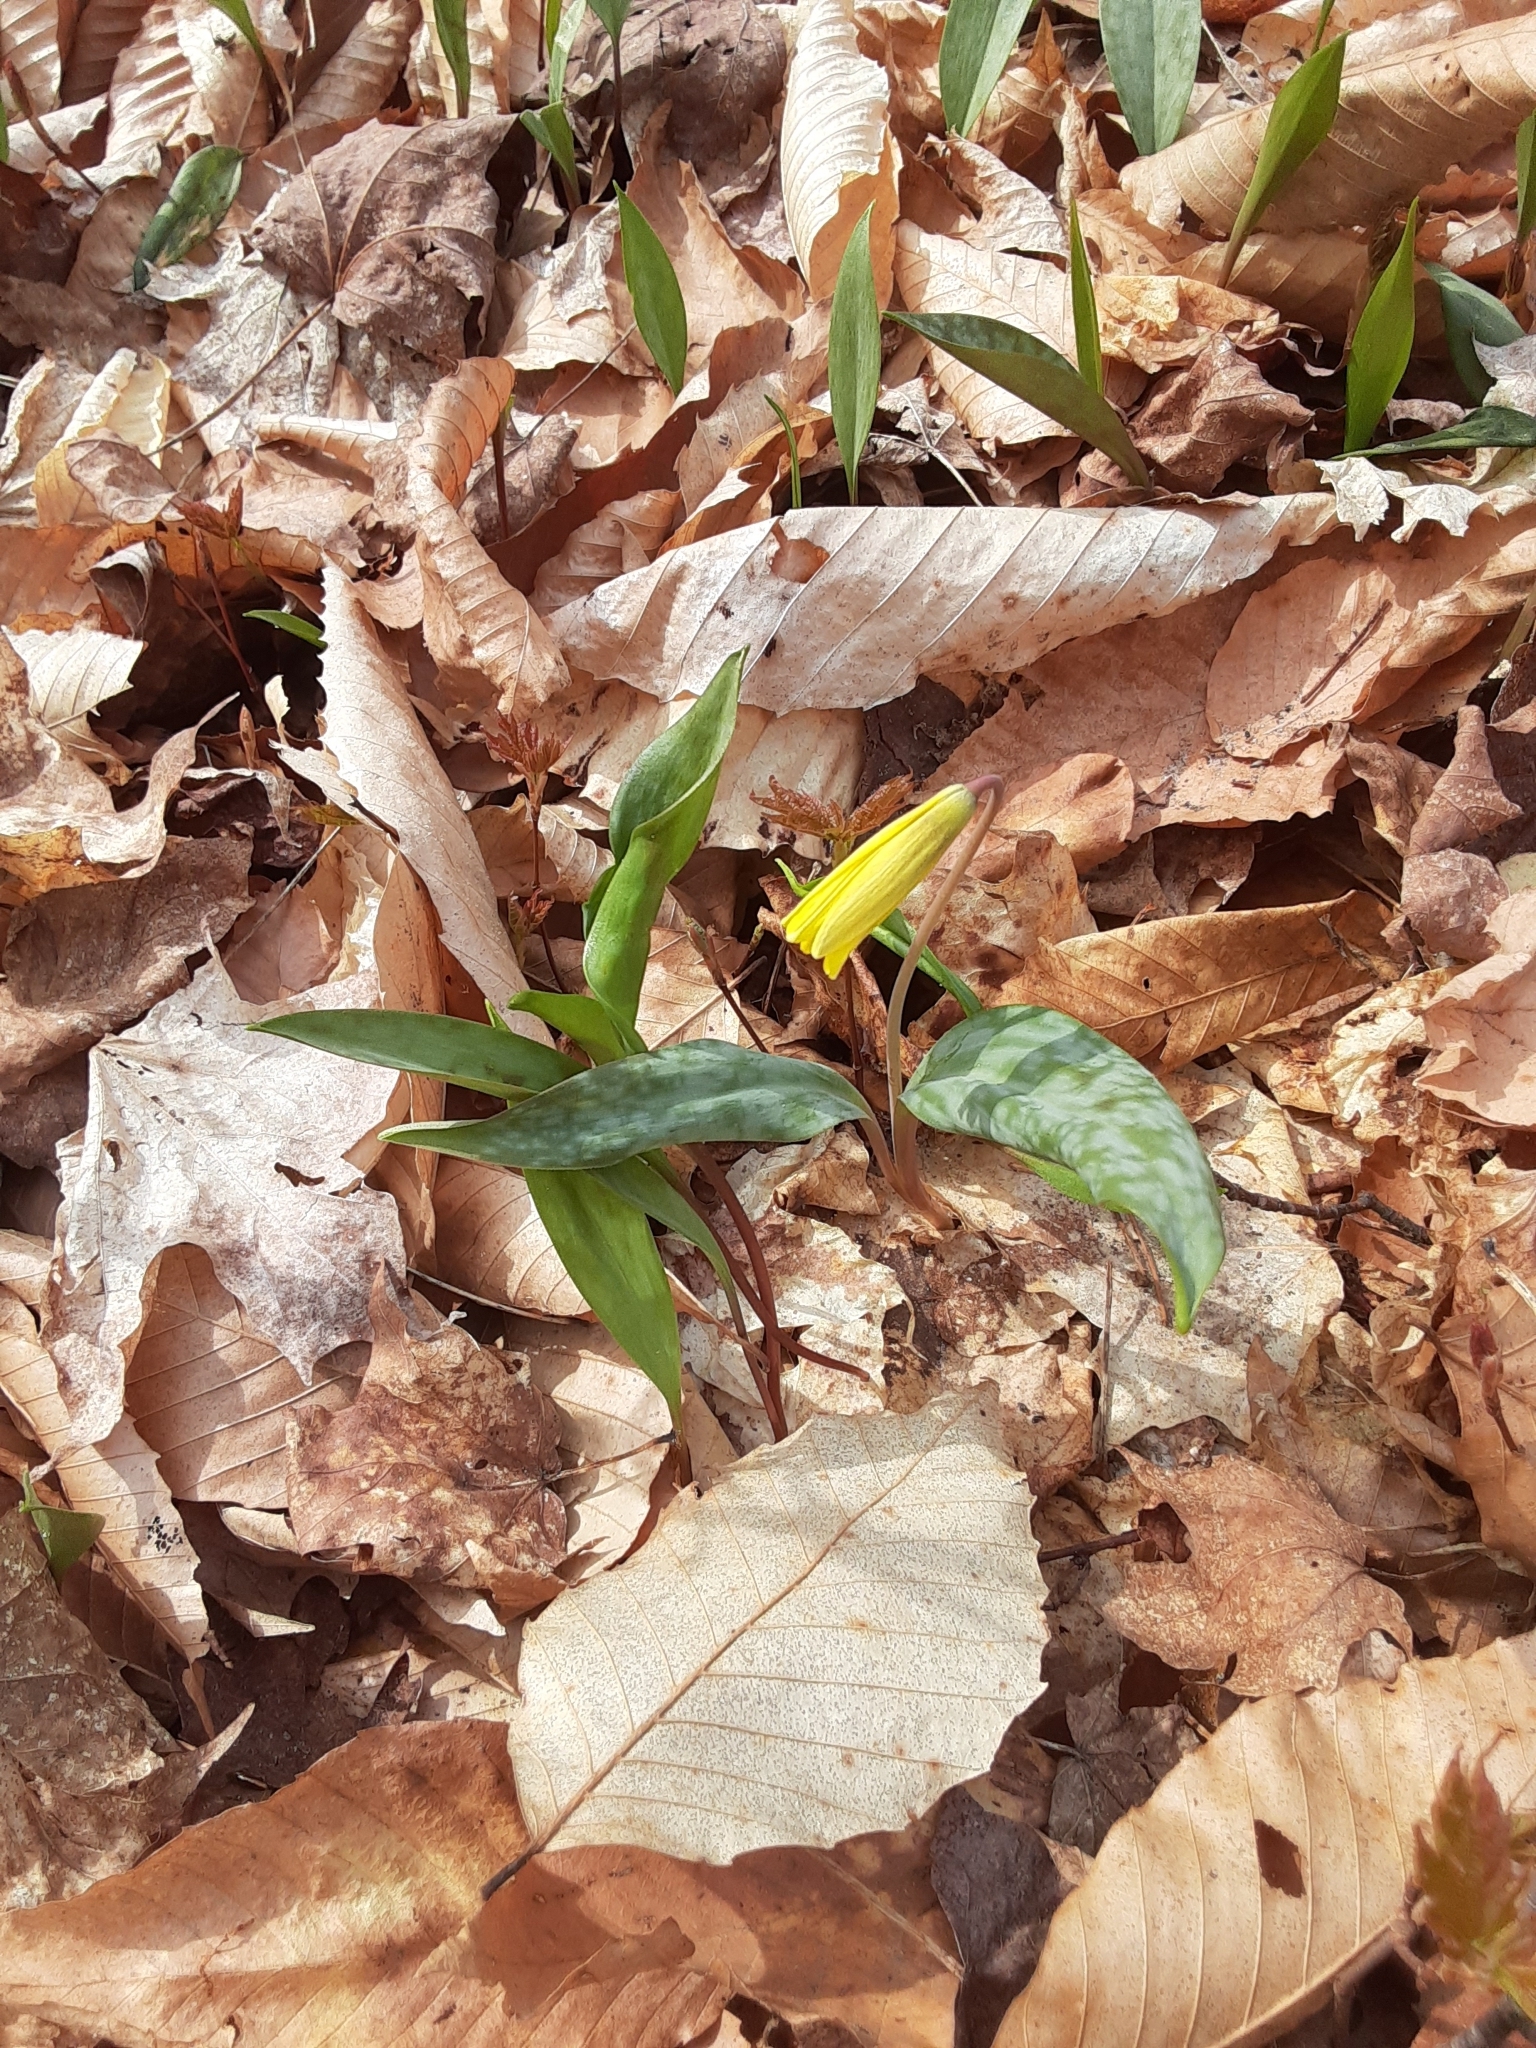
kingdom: Plantae
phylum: Tracheophyta
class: Liliopsida
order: Liliales
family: Liliaceae
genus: Erythronium
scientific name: Erythronium americanum
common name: Yellow adder's-tongue
